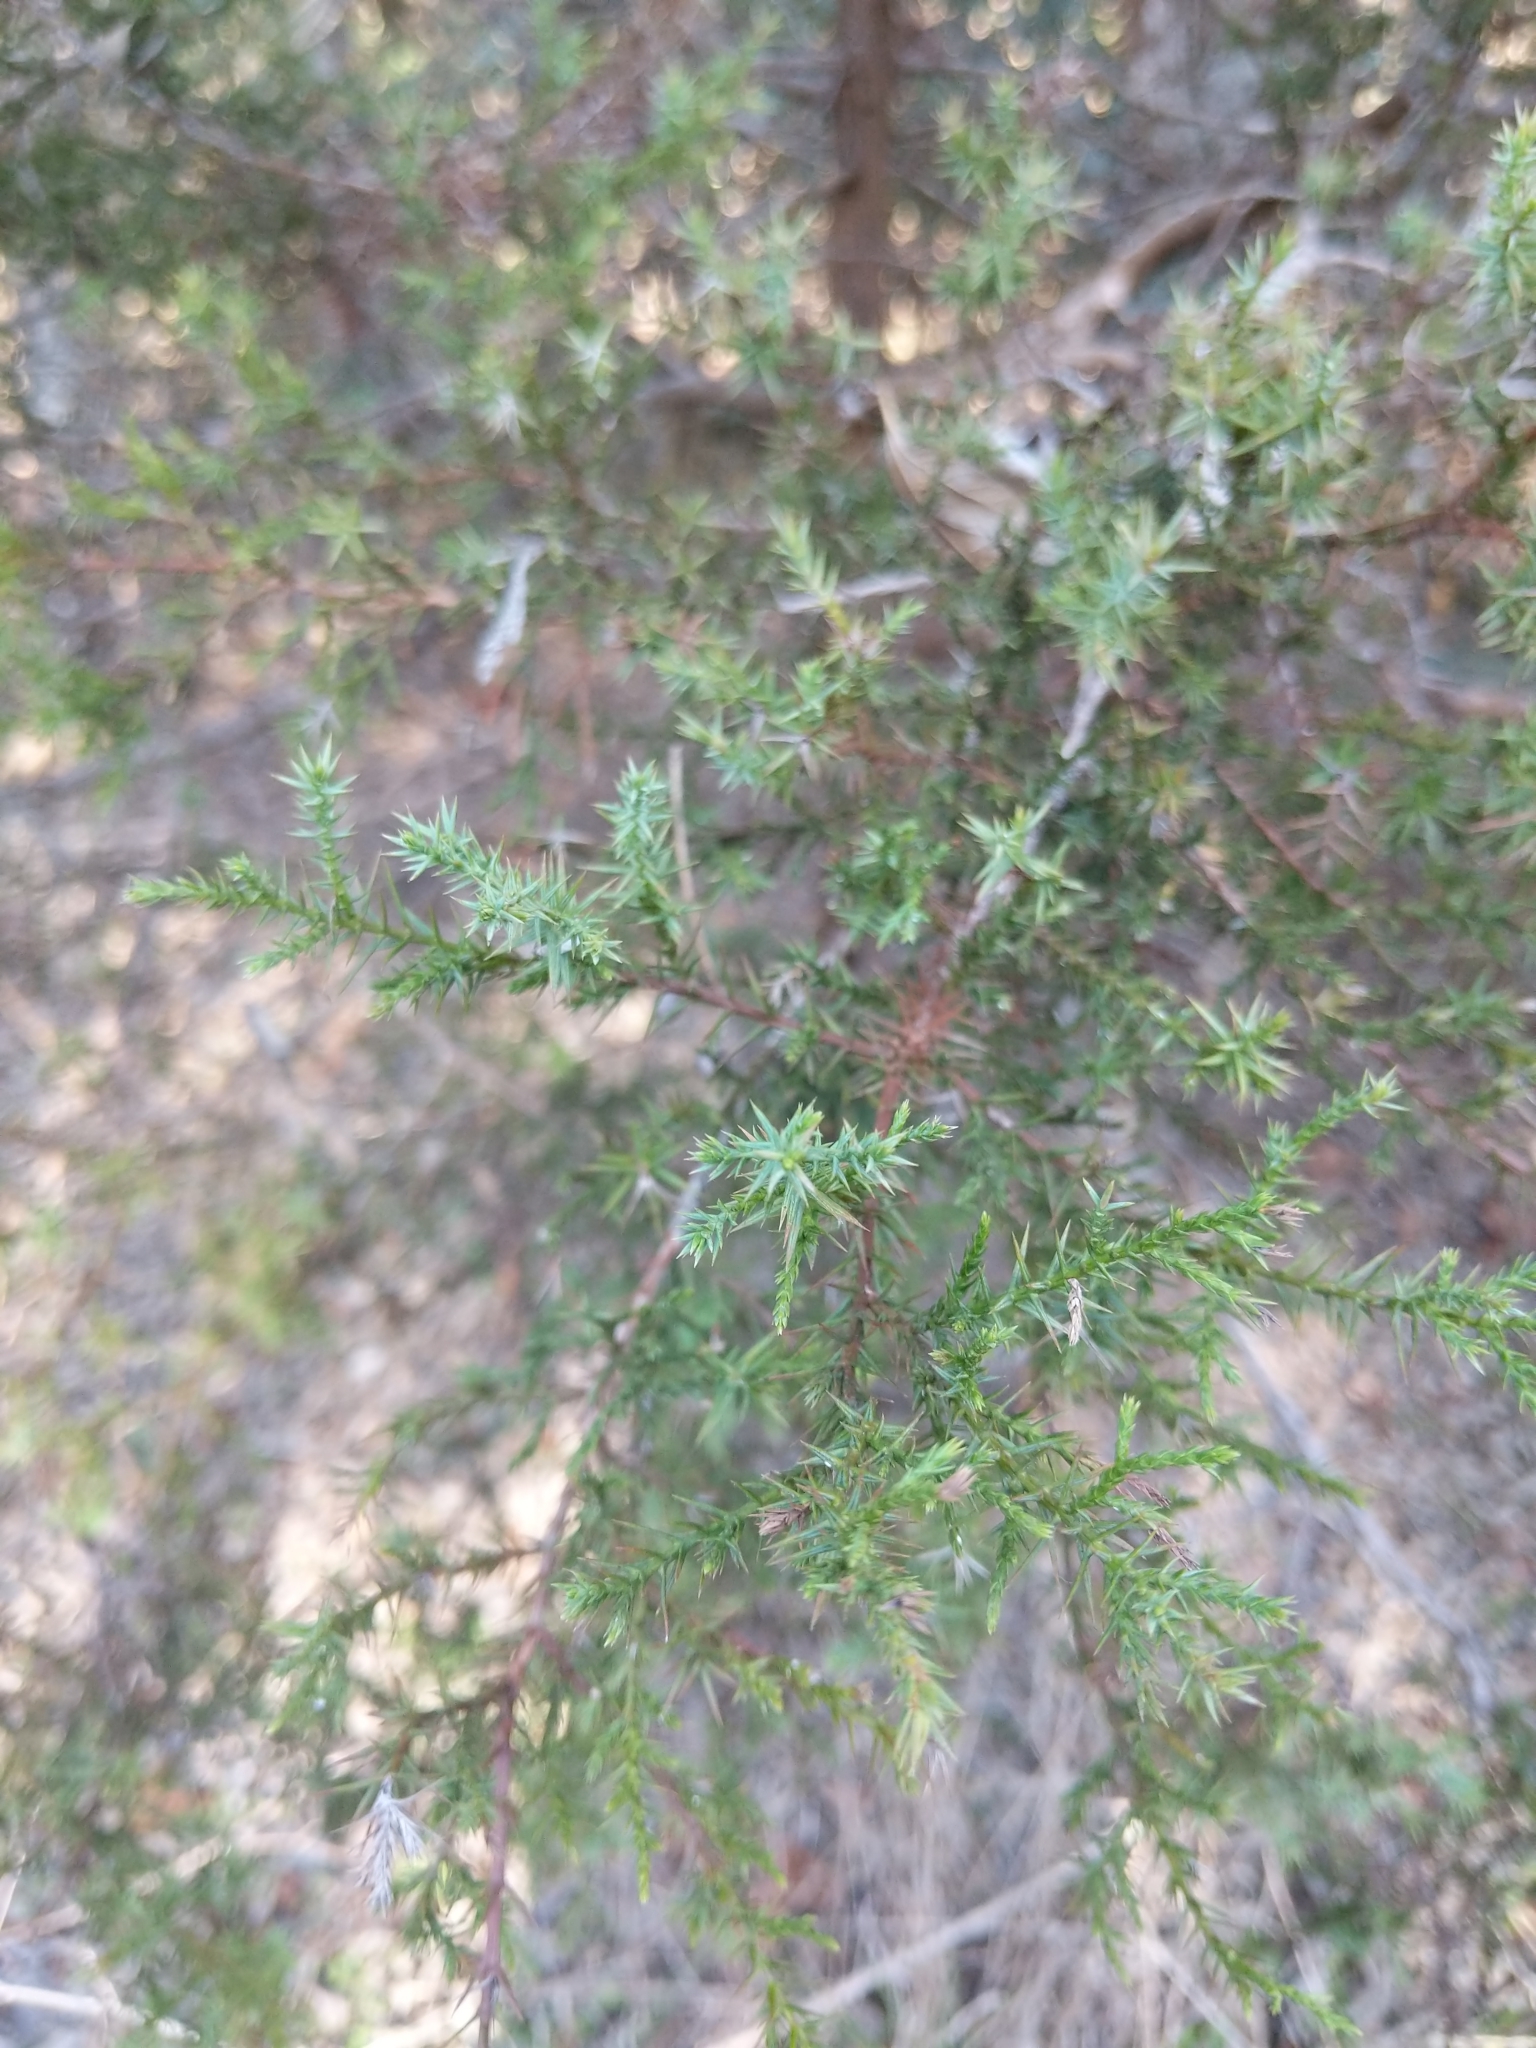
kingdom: Plantae
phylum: Tracheophyta
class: Pinopsida
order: Pinales
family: Cupressaceae
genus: Juniperus
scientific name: Juniperus virginiana
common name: Red juniper
